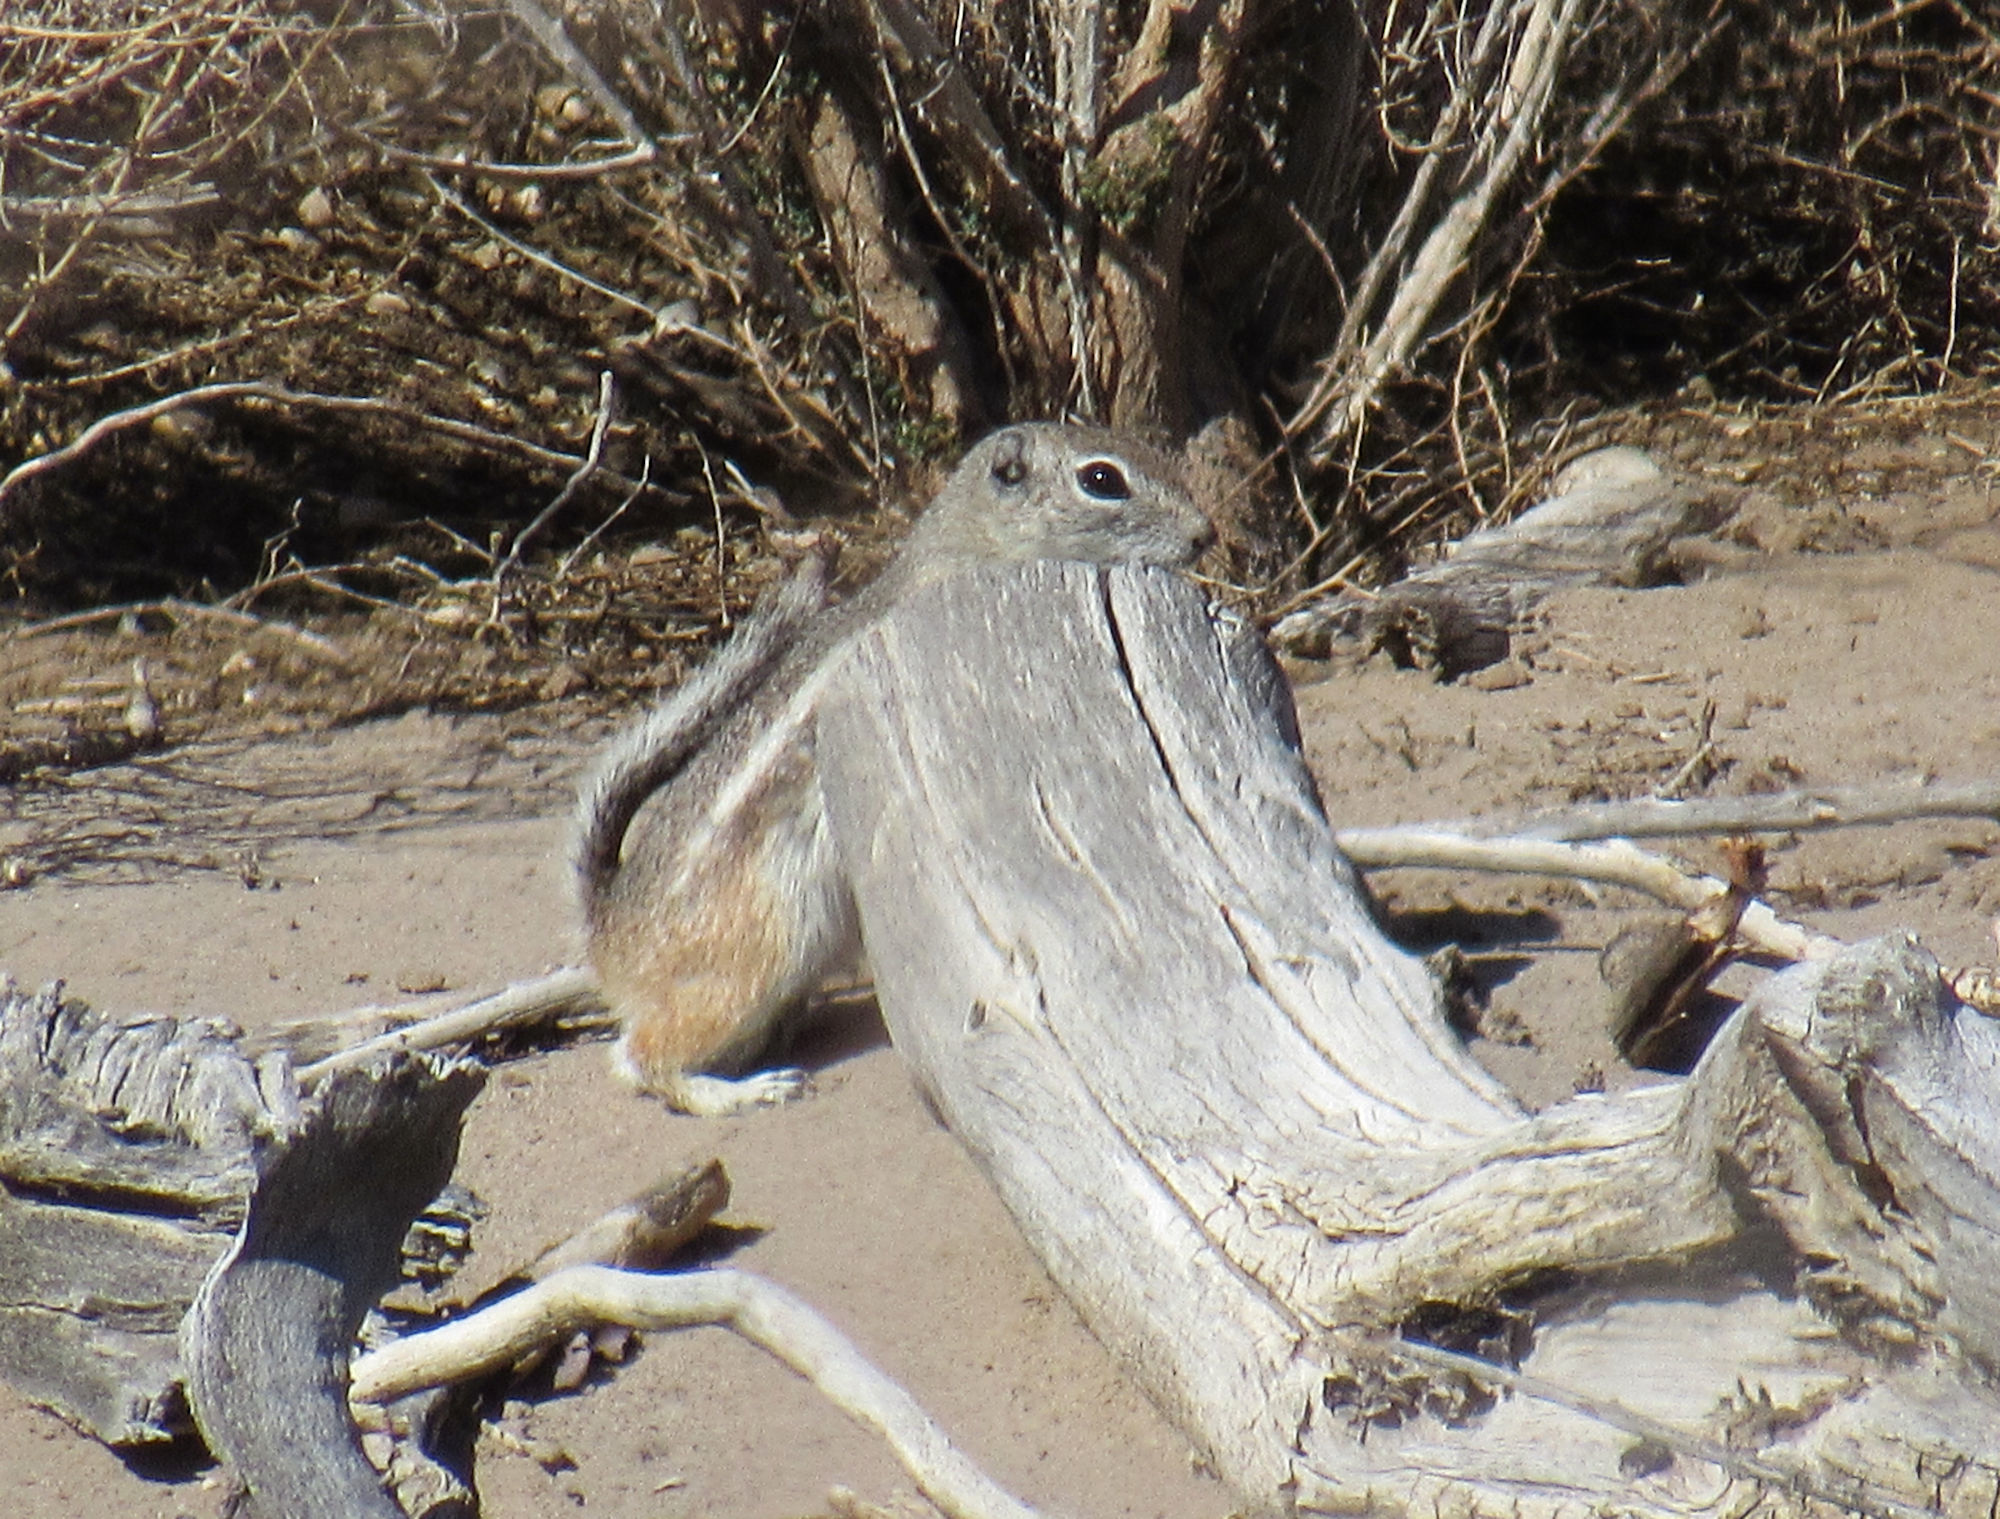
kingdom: Animalia
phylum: Chordata
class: Mammalia
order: Rodentia
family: Sciuridae
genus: Ammospermophilus
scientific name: Ammospermophilus leucurus
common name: White-tailed antelope squirrel
